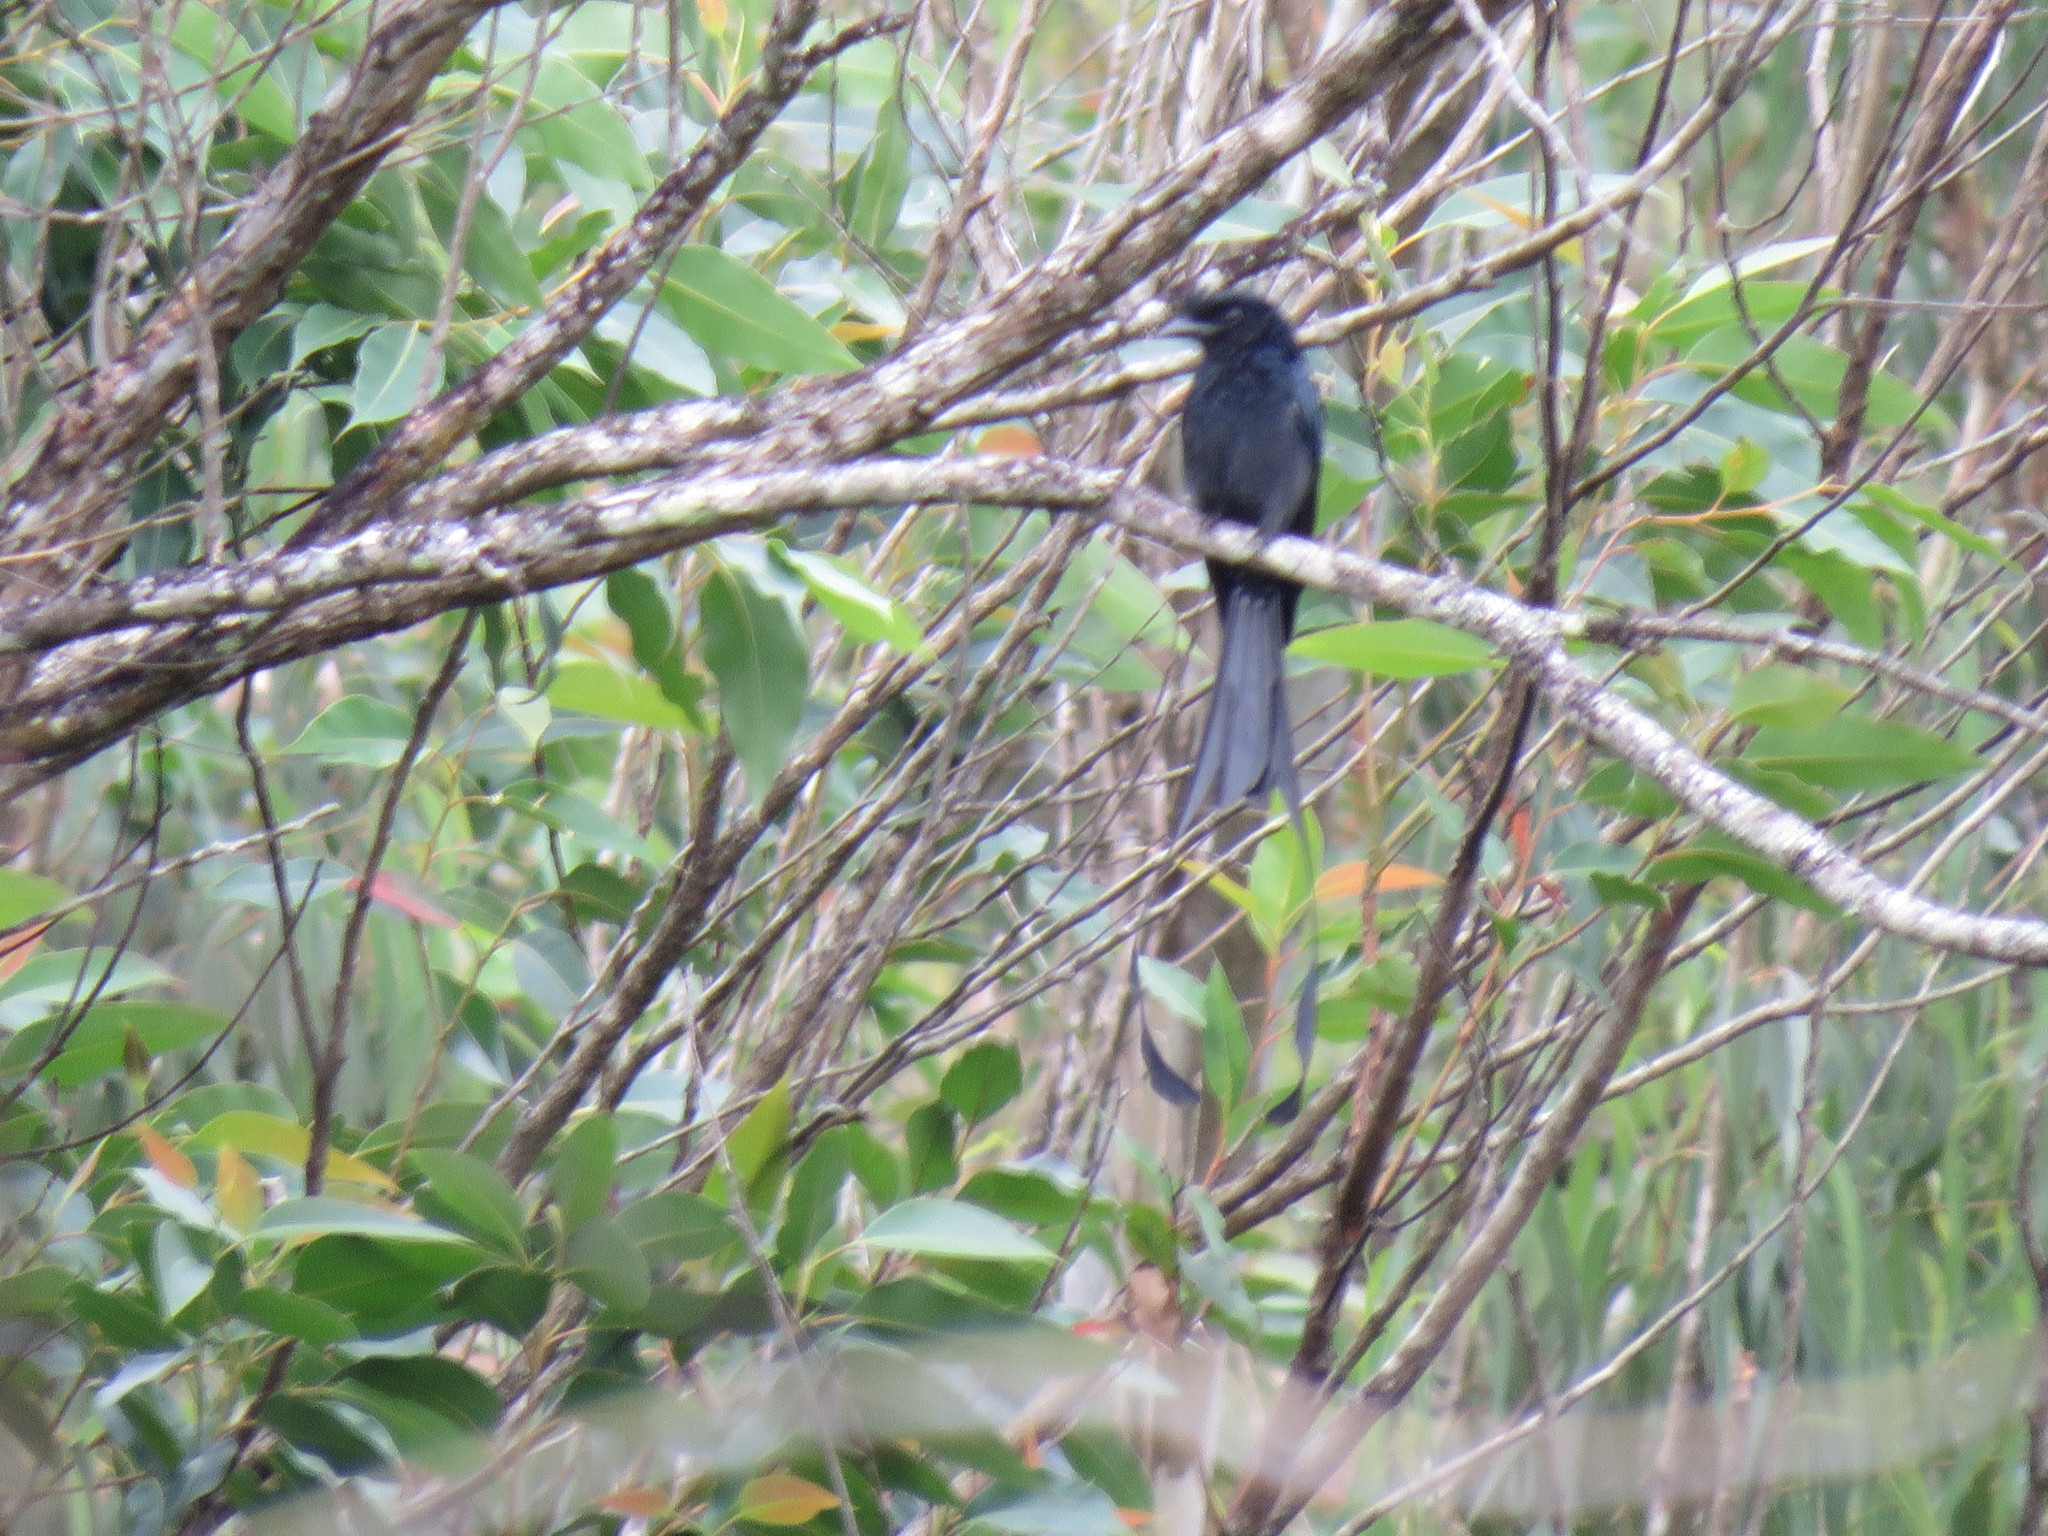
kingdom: Animalia
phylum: Chordata
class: Aves
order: Passeriformes
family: Dicruridae
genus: Dicrurus
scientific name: Dicrurus paradiseus
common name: Greater racket-tailed drongo
